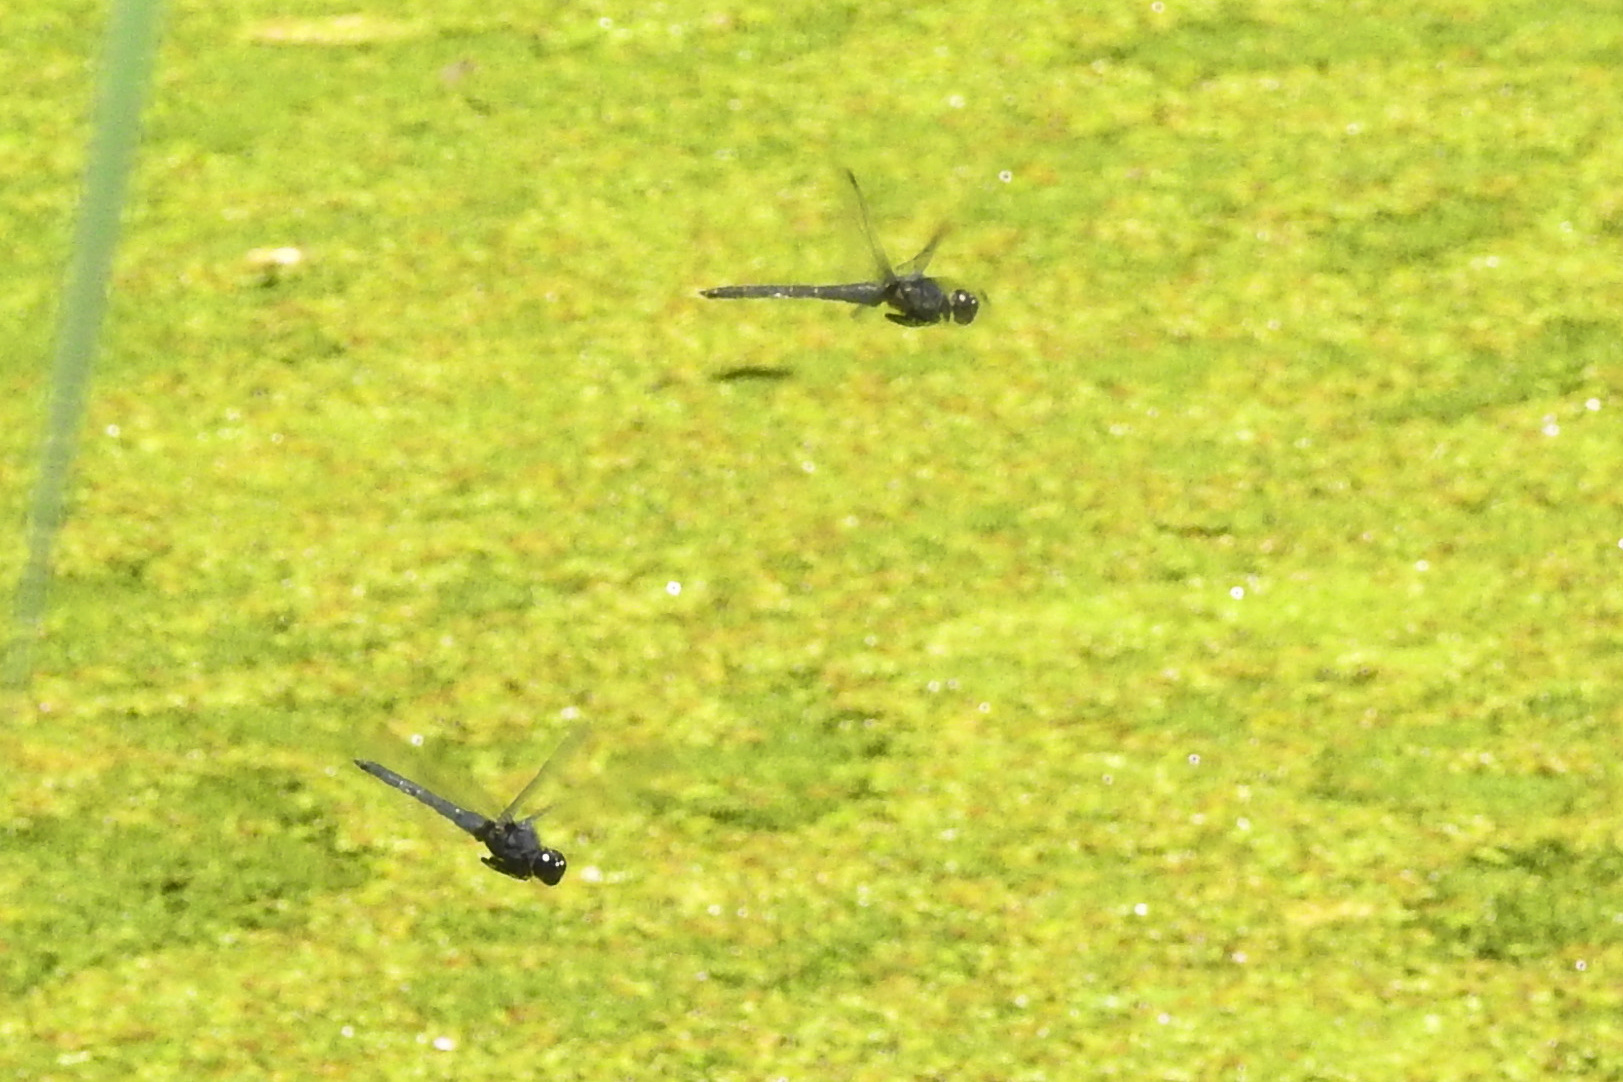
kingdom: Animalia
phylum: Arthropoda
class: Insecta
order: Odonata
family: Libellulidae
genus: Libellula
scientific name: Libellula incesta
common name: Slaty skimmer
